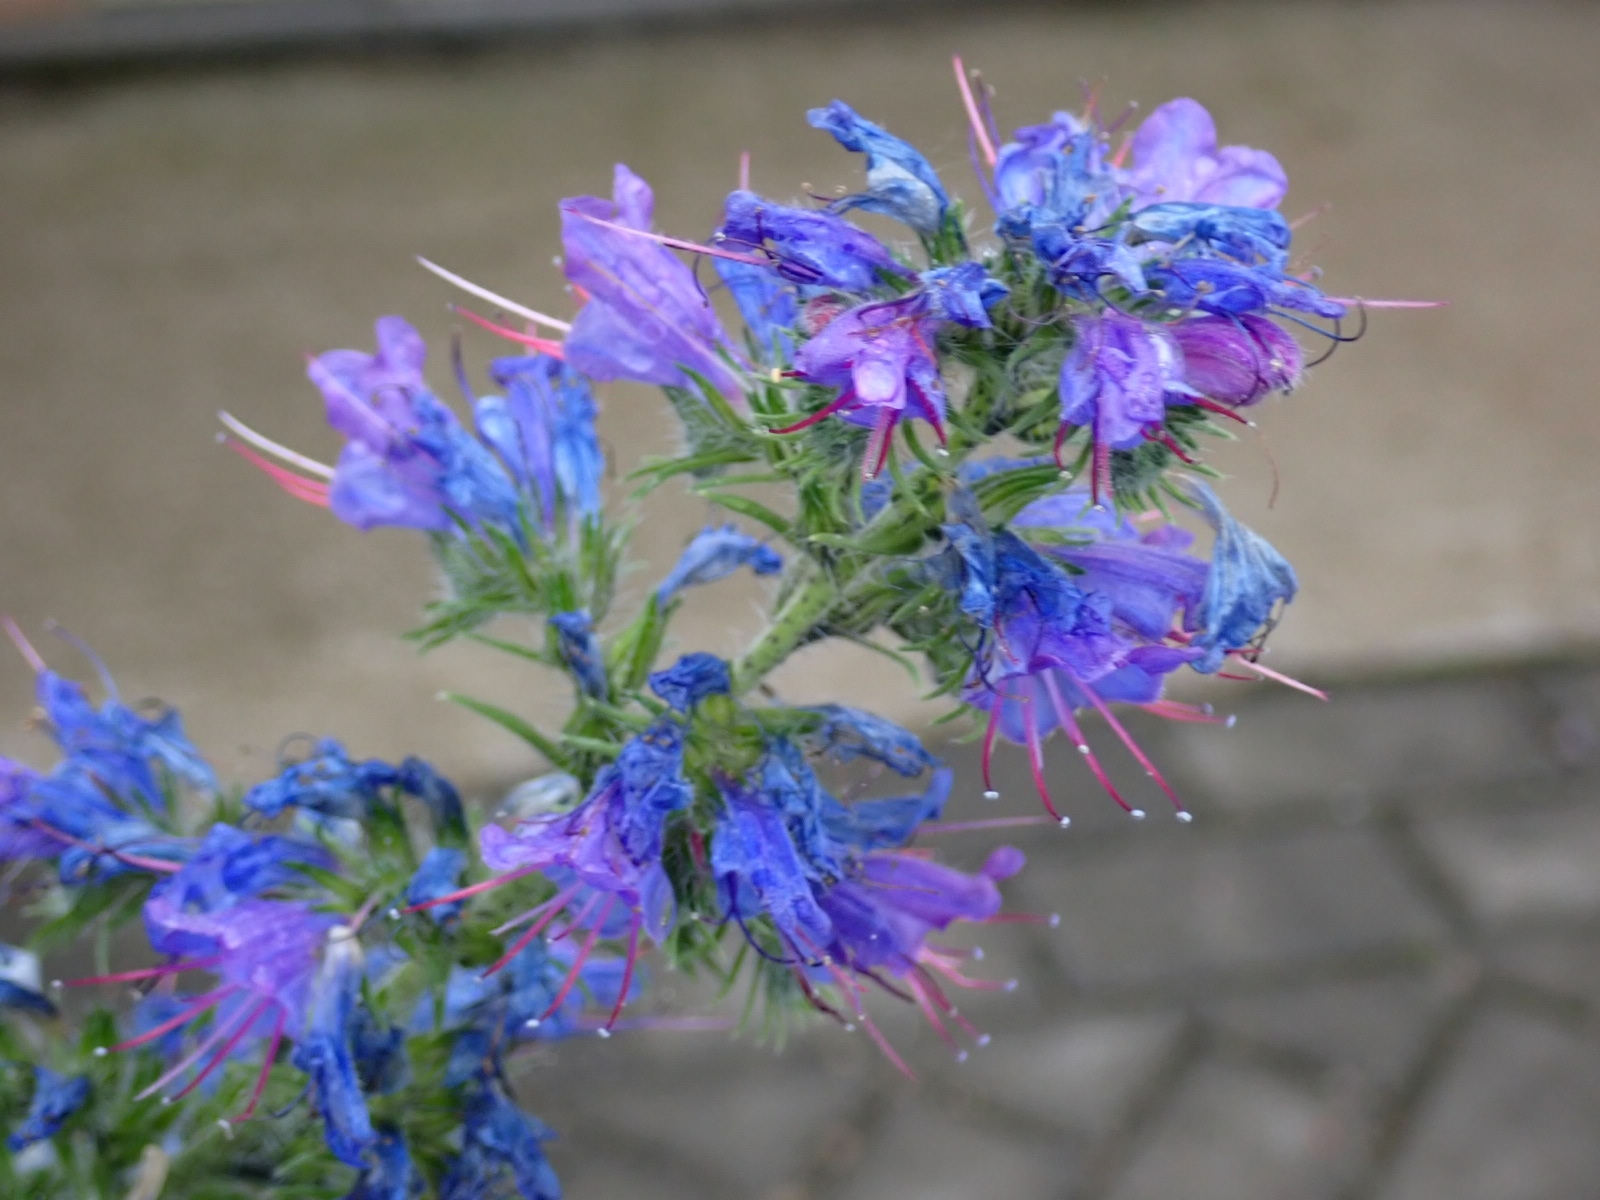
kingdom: Plantae
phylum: Tracheophyta
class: Magnoliopsida
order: Boraginales
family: Boraginaceae
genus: Echium
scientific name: Echium vulgare
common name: Common viper's bugloss
